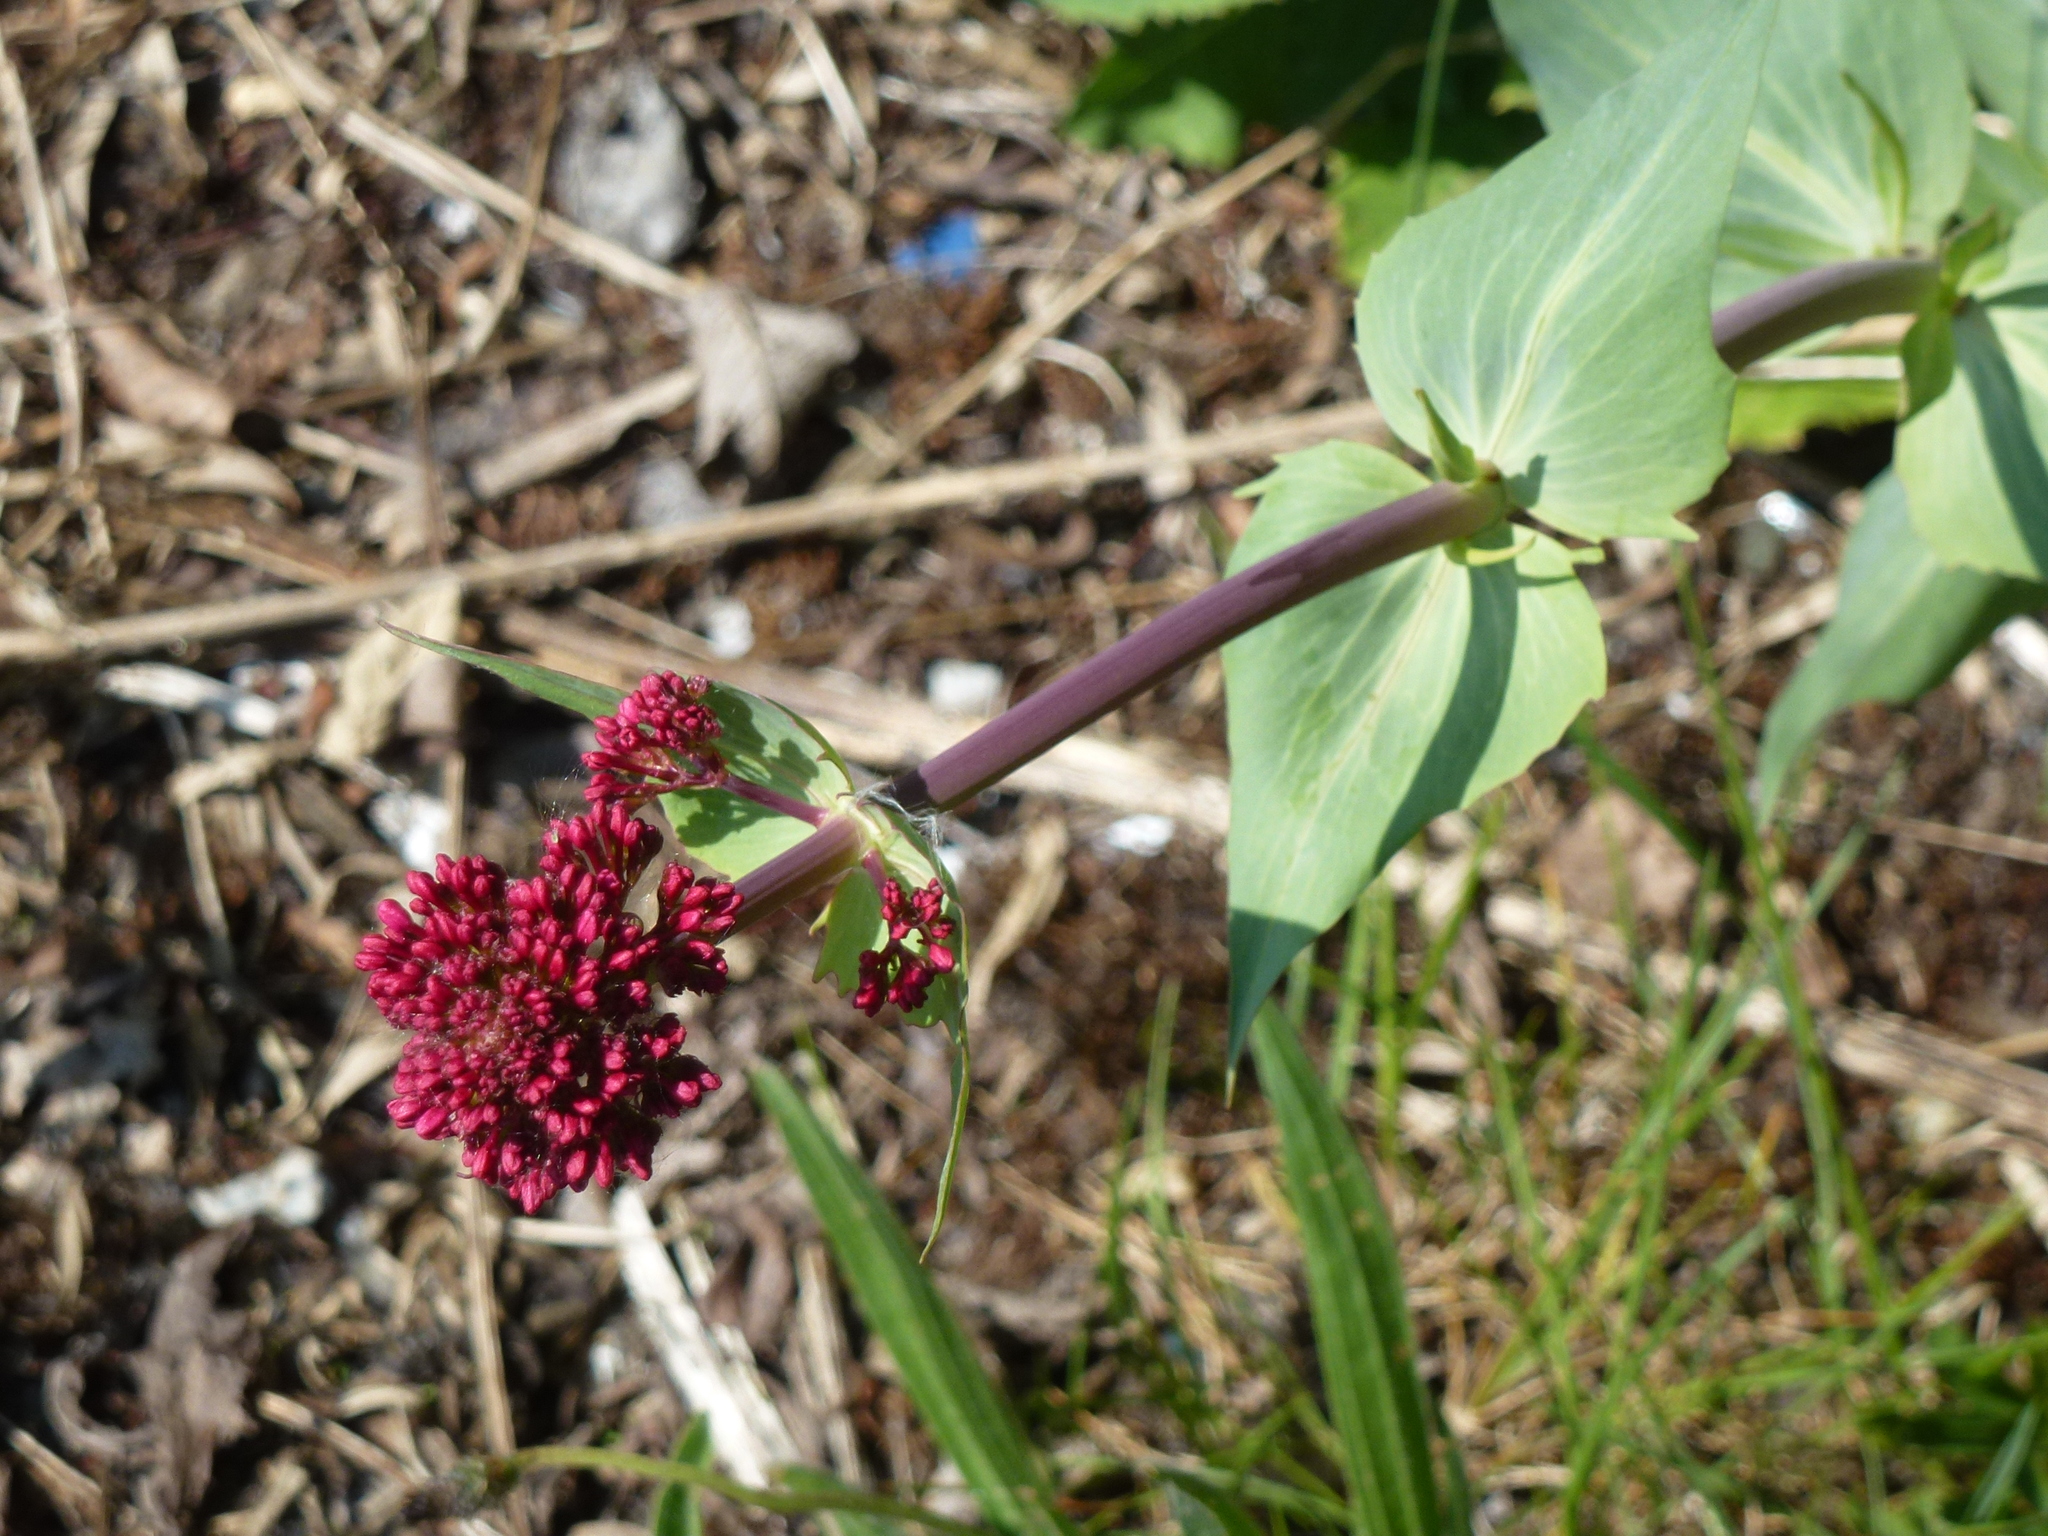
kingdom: Plantae
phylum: Tracheophyta
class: Magnoliopsida
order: Dipsacales
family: Caprifoliaceae
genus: Centranthus
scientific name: Centranthus ruber
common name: Red valerian
